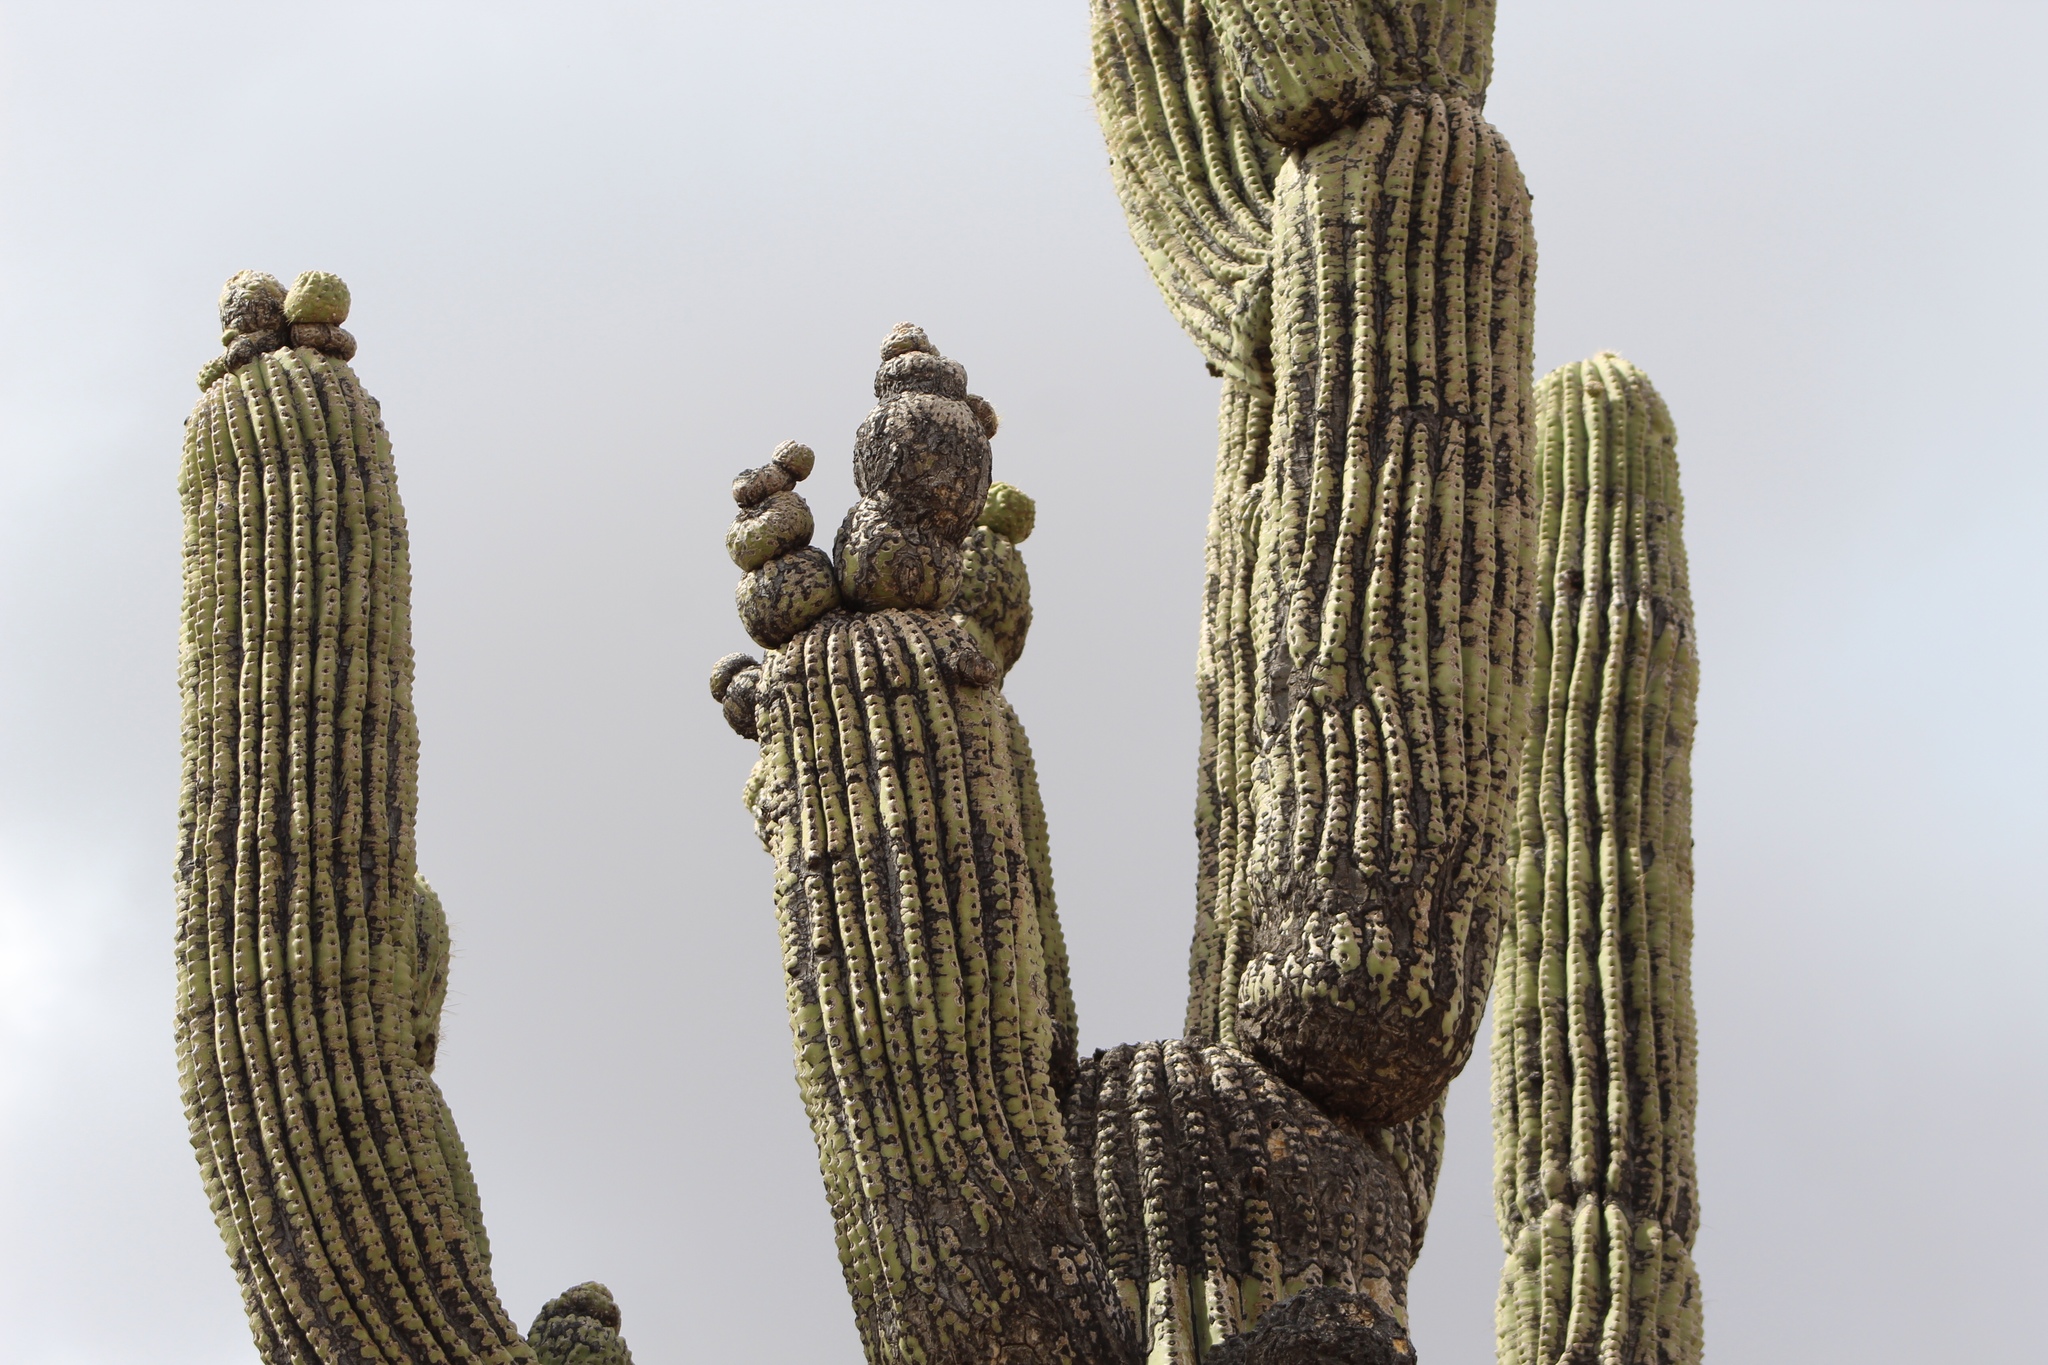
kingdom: Plantae
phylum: Tracheophyta
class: Magnoliopsida
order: Caryophyllales
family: Cactaceae
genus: Carnegiea
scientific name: Carnegiea gigantea
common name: Saguaro
